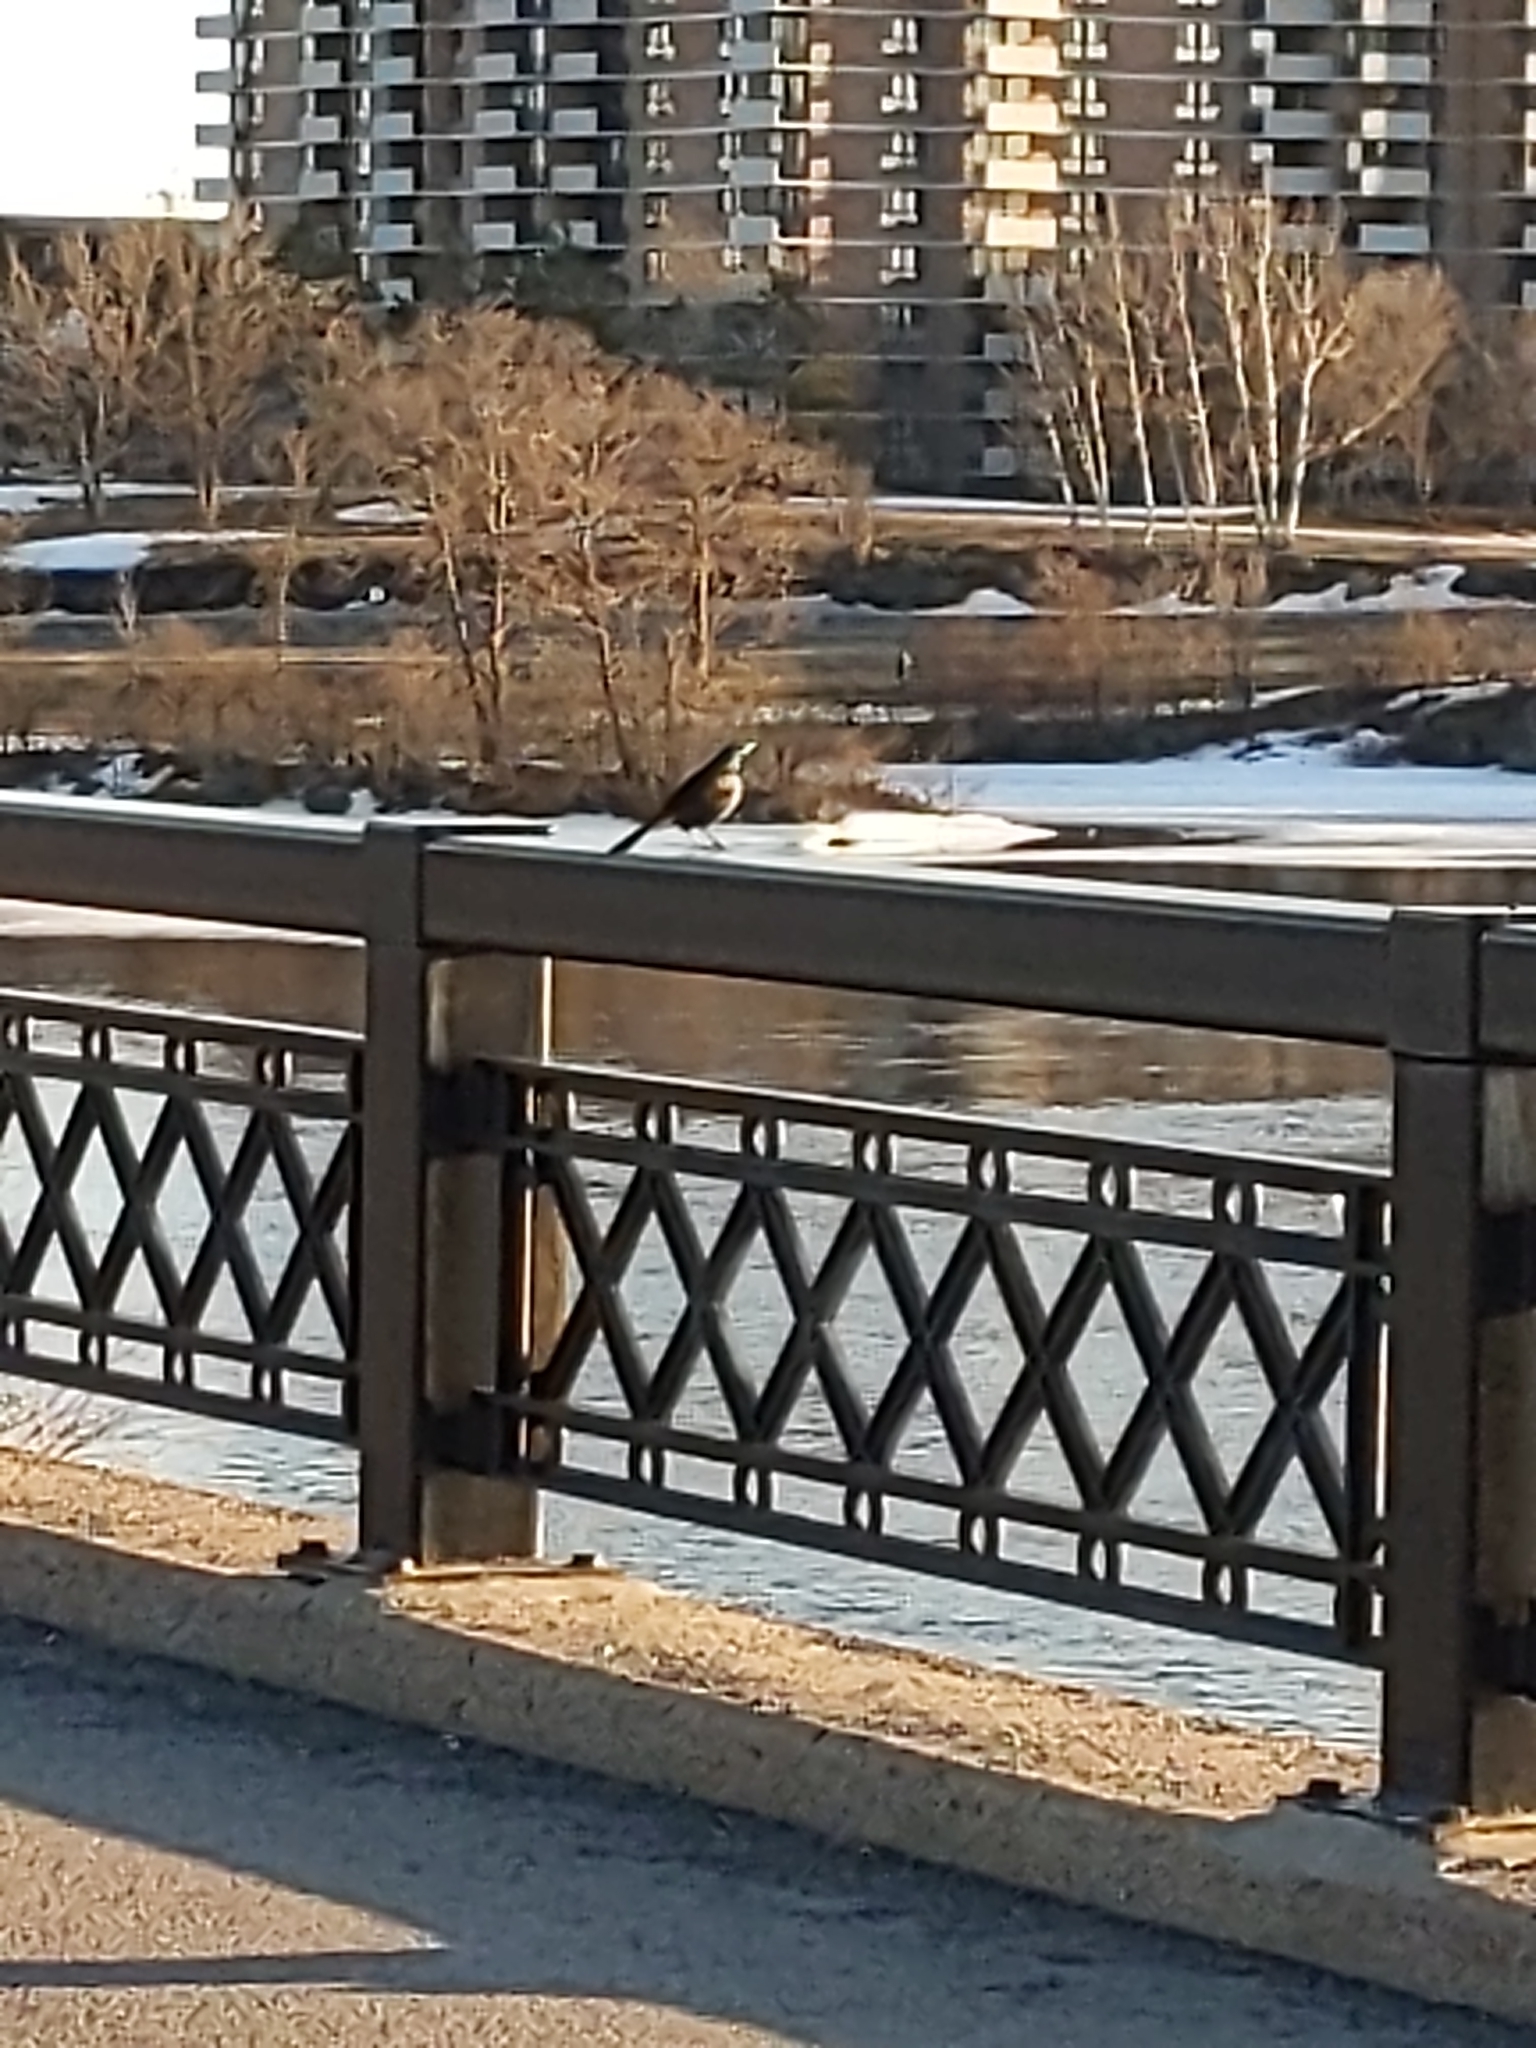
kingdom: Animalia
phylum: Chordata
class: Aves
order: Passeriformes
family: Icteridae
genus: Quiscalus
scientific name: Quiscalus quiscula
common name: Common grackle
